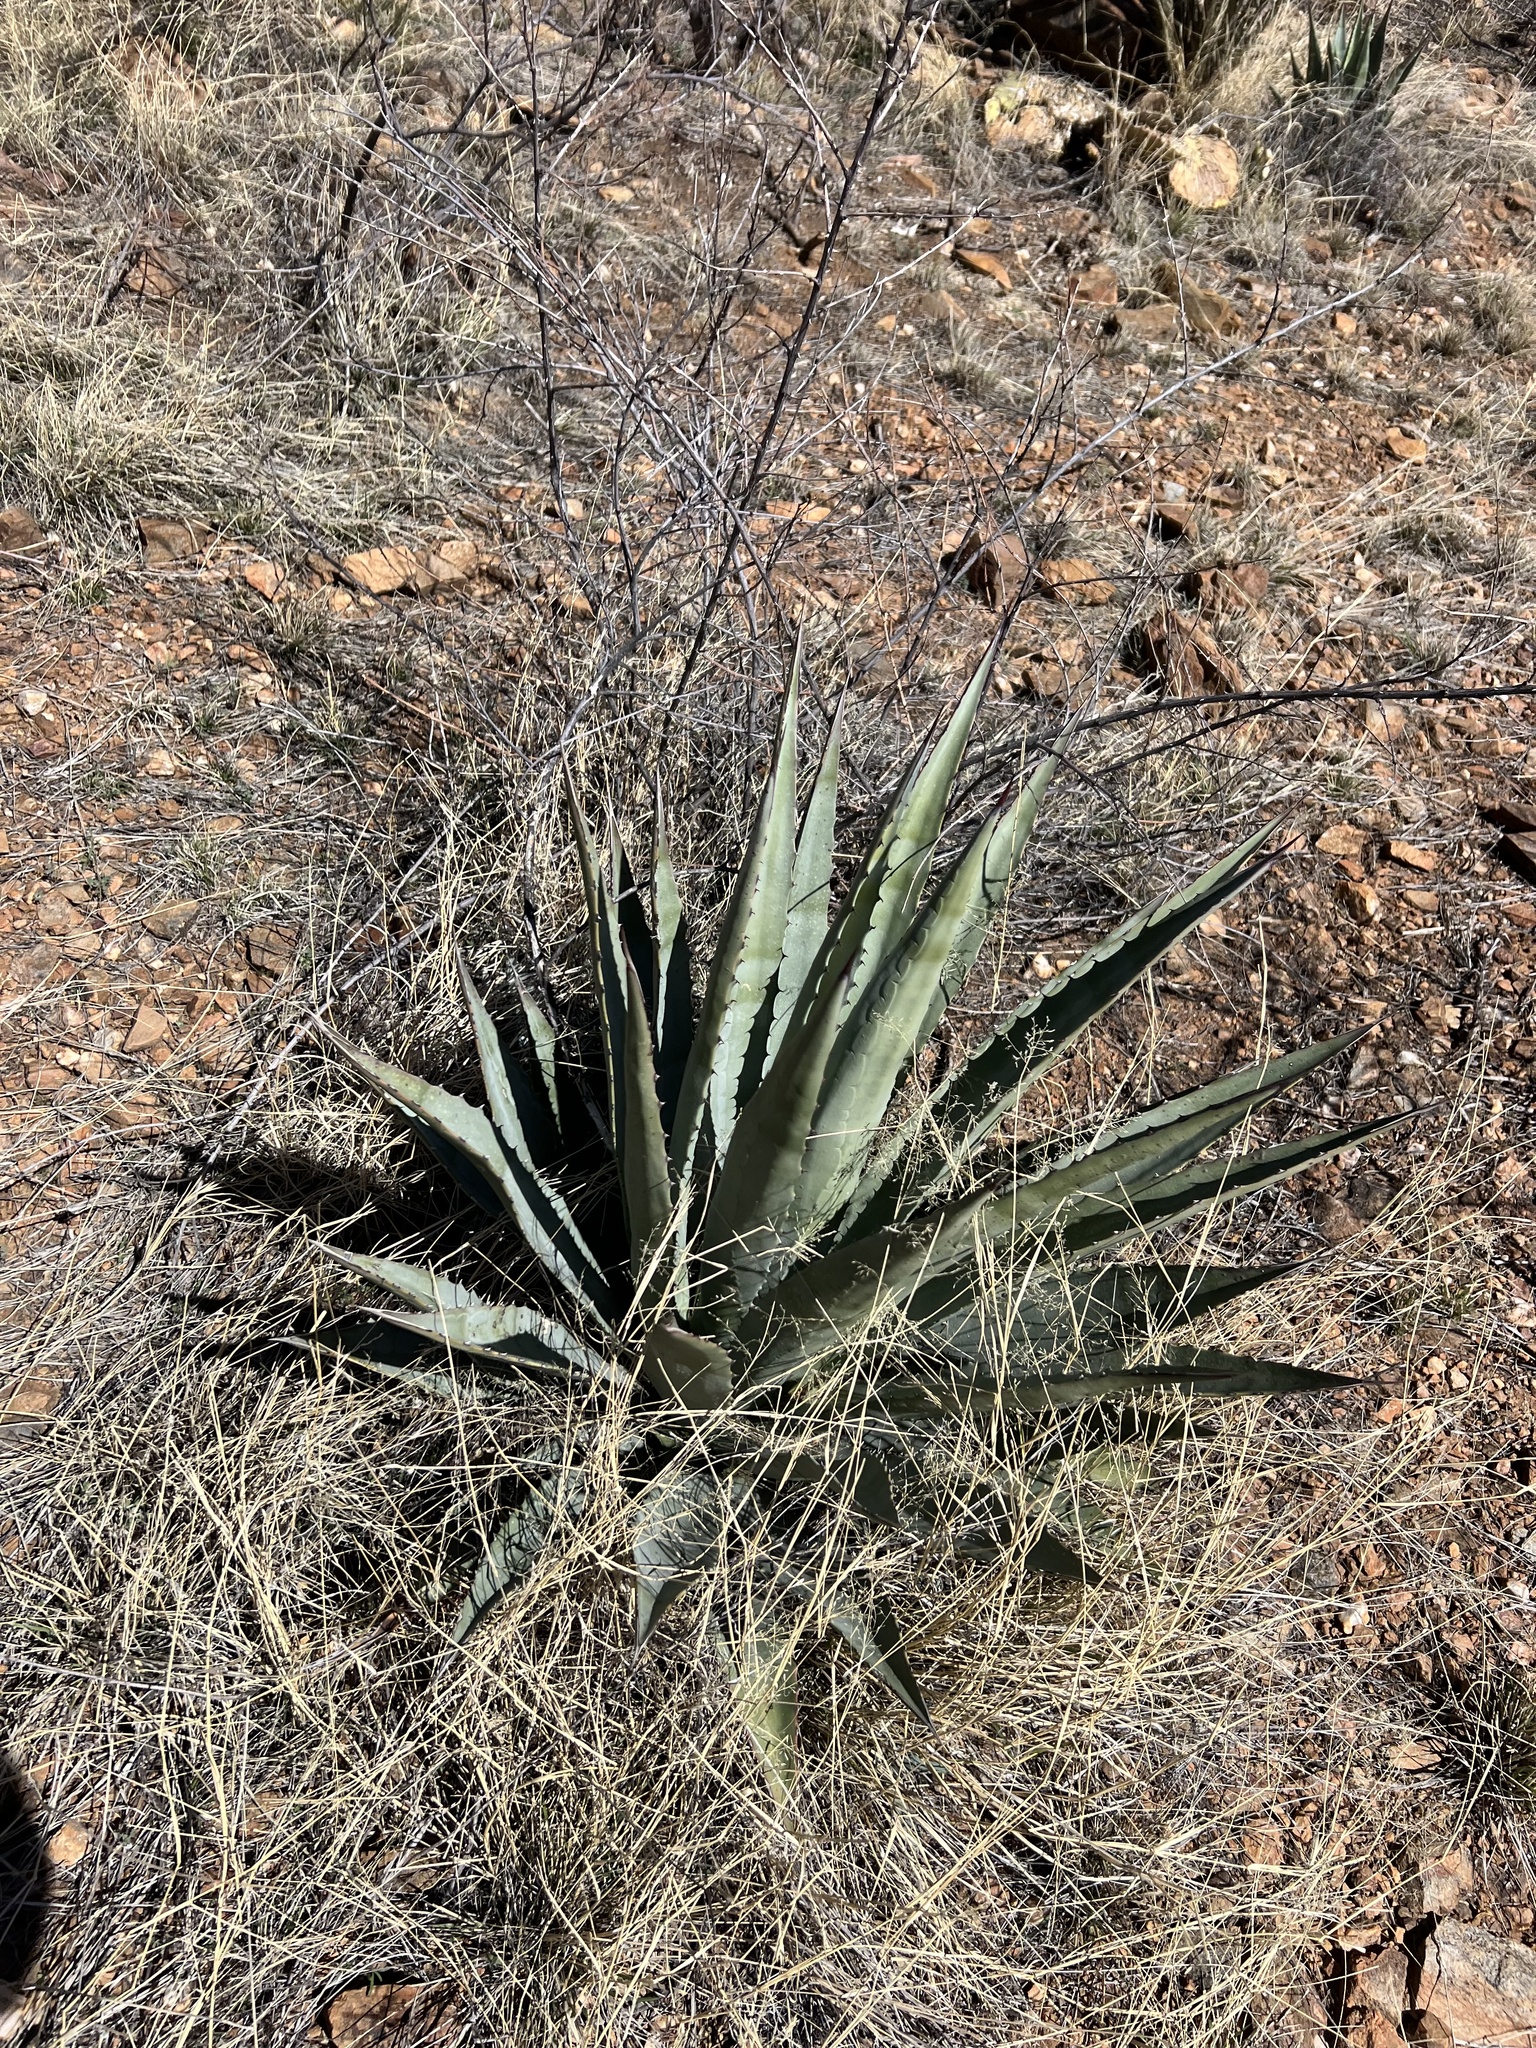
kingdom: Plantae
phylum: Tracheophyta
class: Liliopsida
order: Asparagales
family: Asparagaceae
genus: Agave
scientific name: Agave palmeri
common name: Palmer agave
